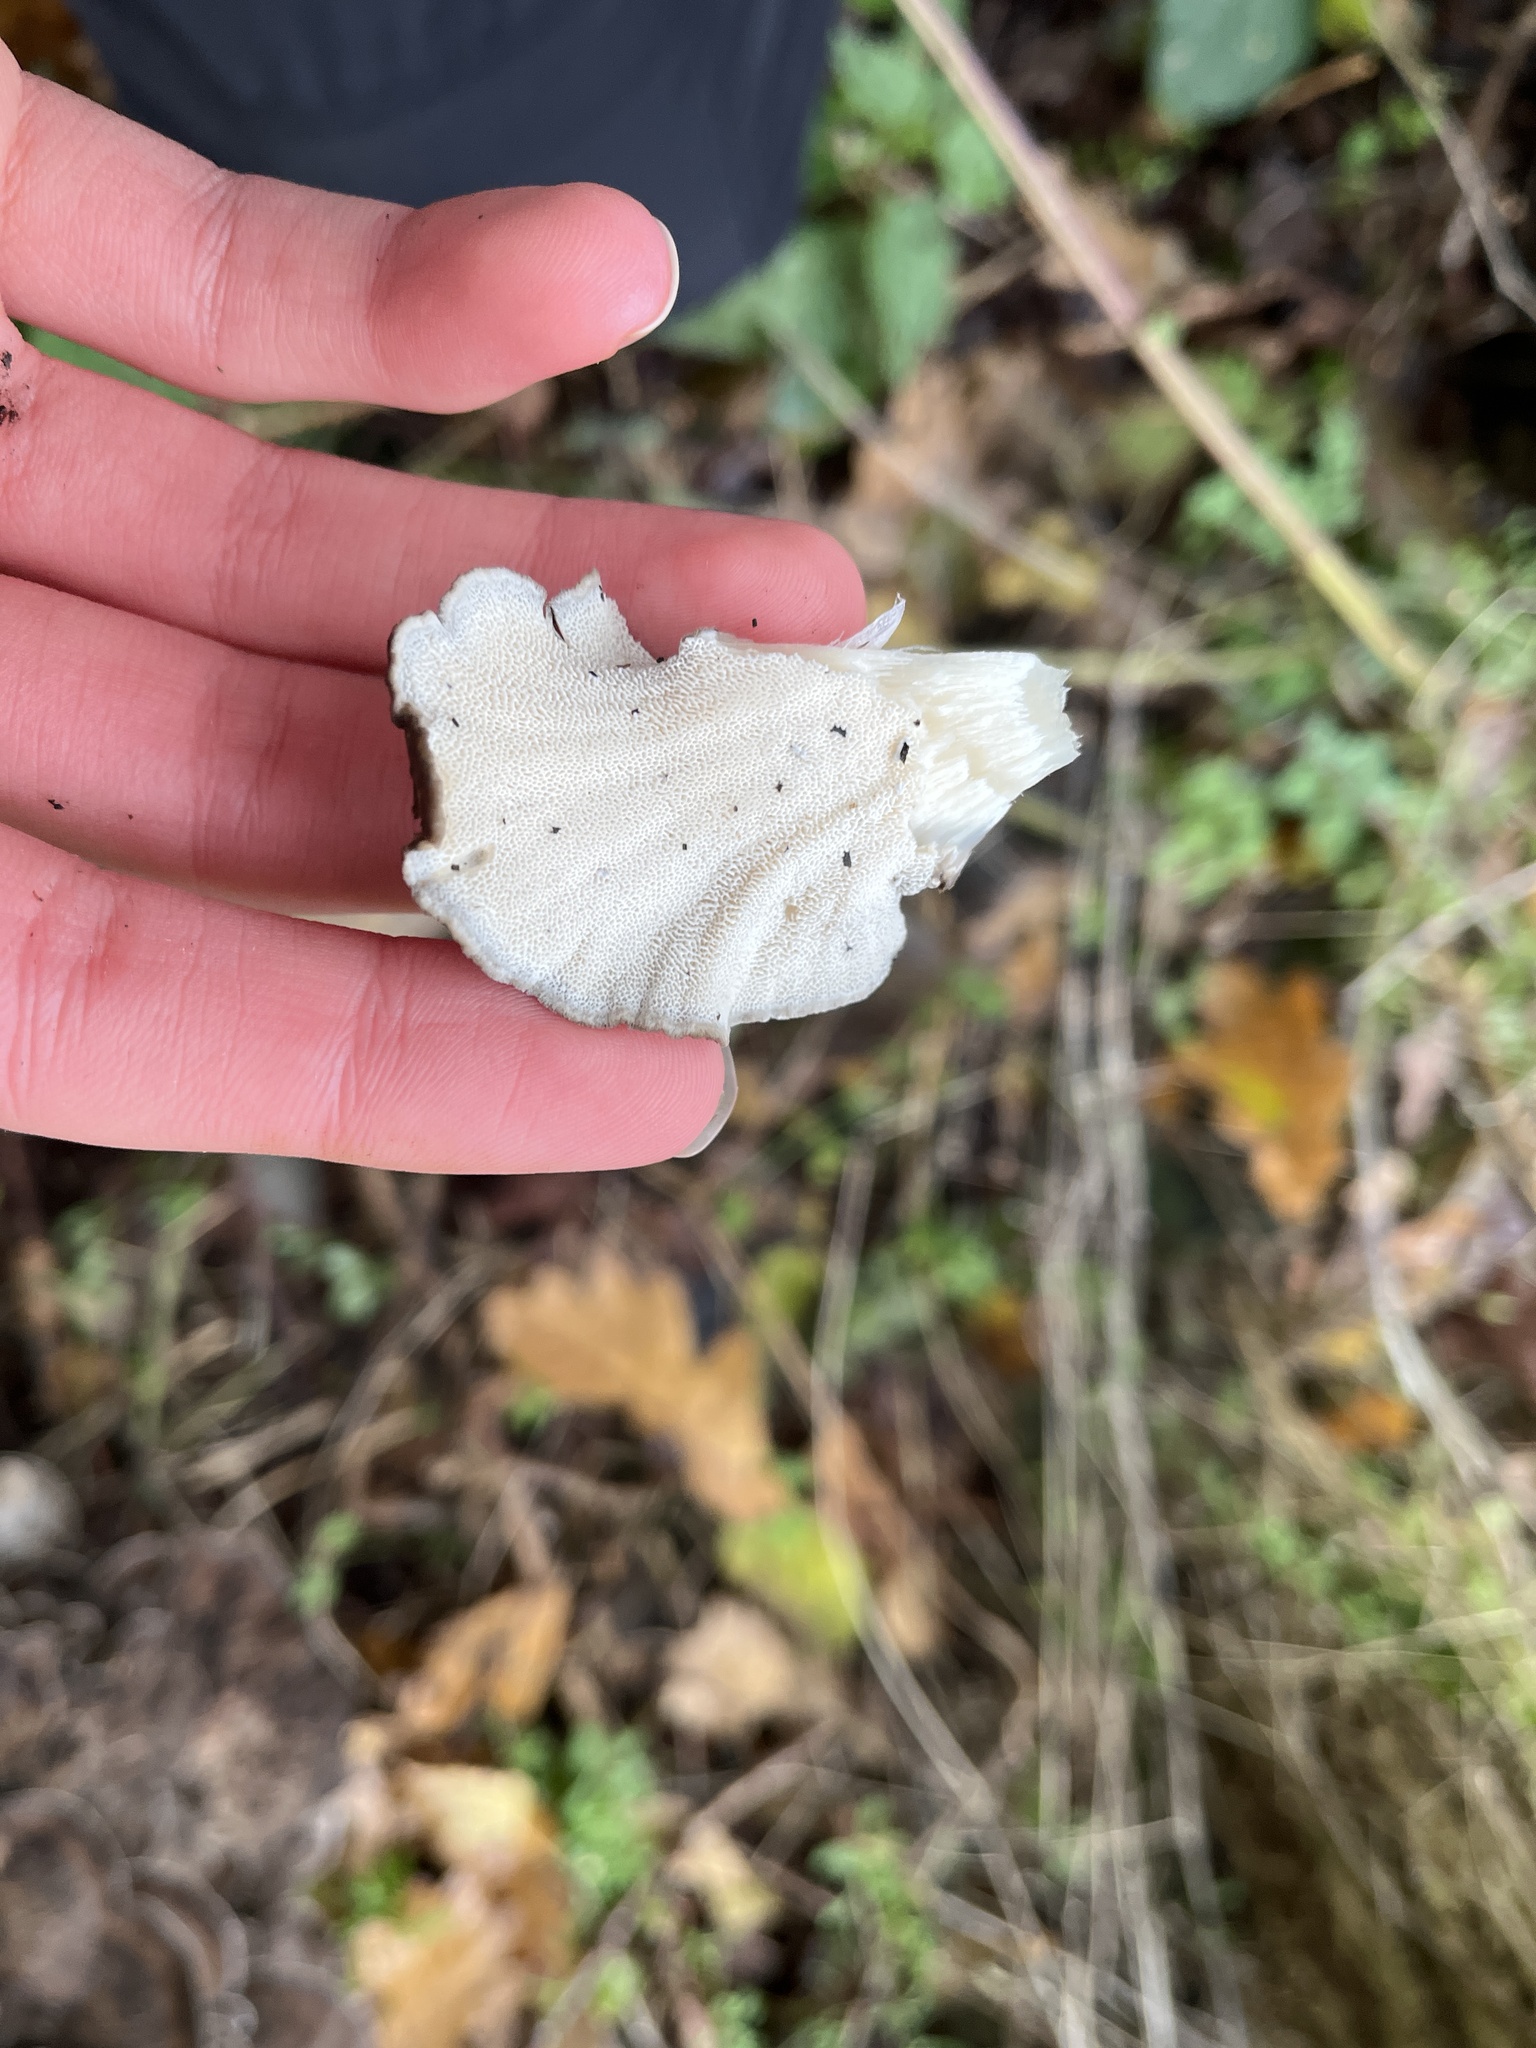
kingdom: Fungi
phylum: Basidiomycota
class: Agaricomycetes
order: Polyporales
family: Grifolaceae
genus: Grifola
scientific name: Grifola frondosa
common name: Hen of the woods
